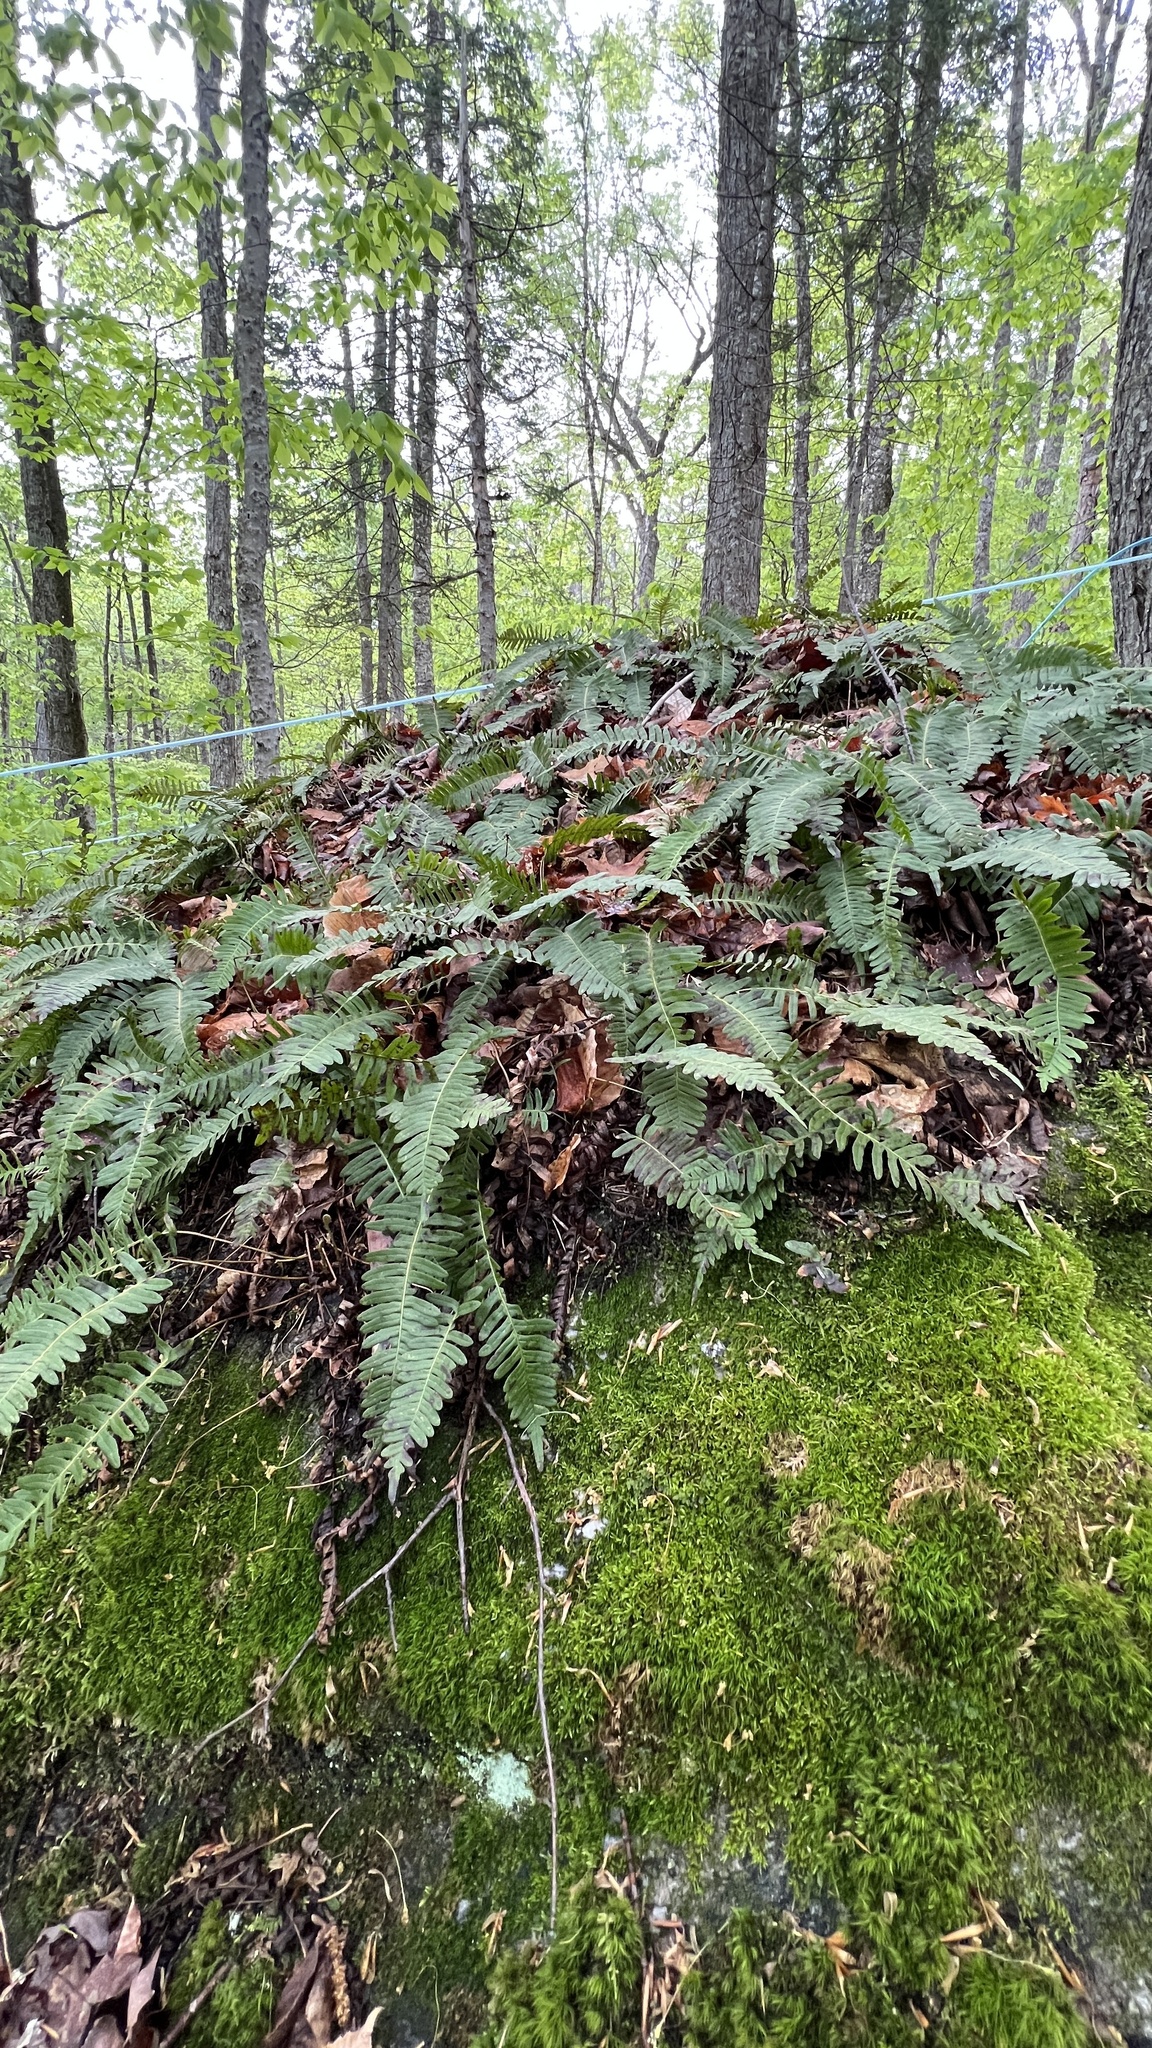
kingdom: Plantae
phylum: Tracheophyta
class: Polypodiopsida
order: Polypodiales
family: Polypodiaceae
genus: Polypodium
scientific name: Polypodium virginianum
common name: American wall fern
